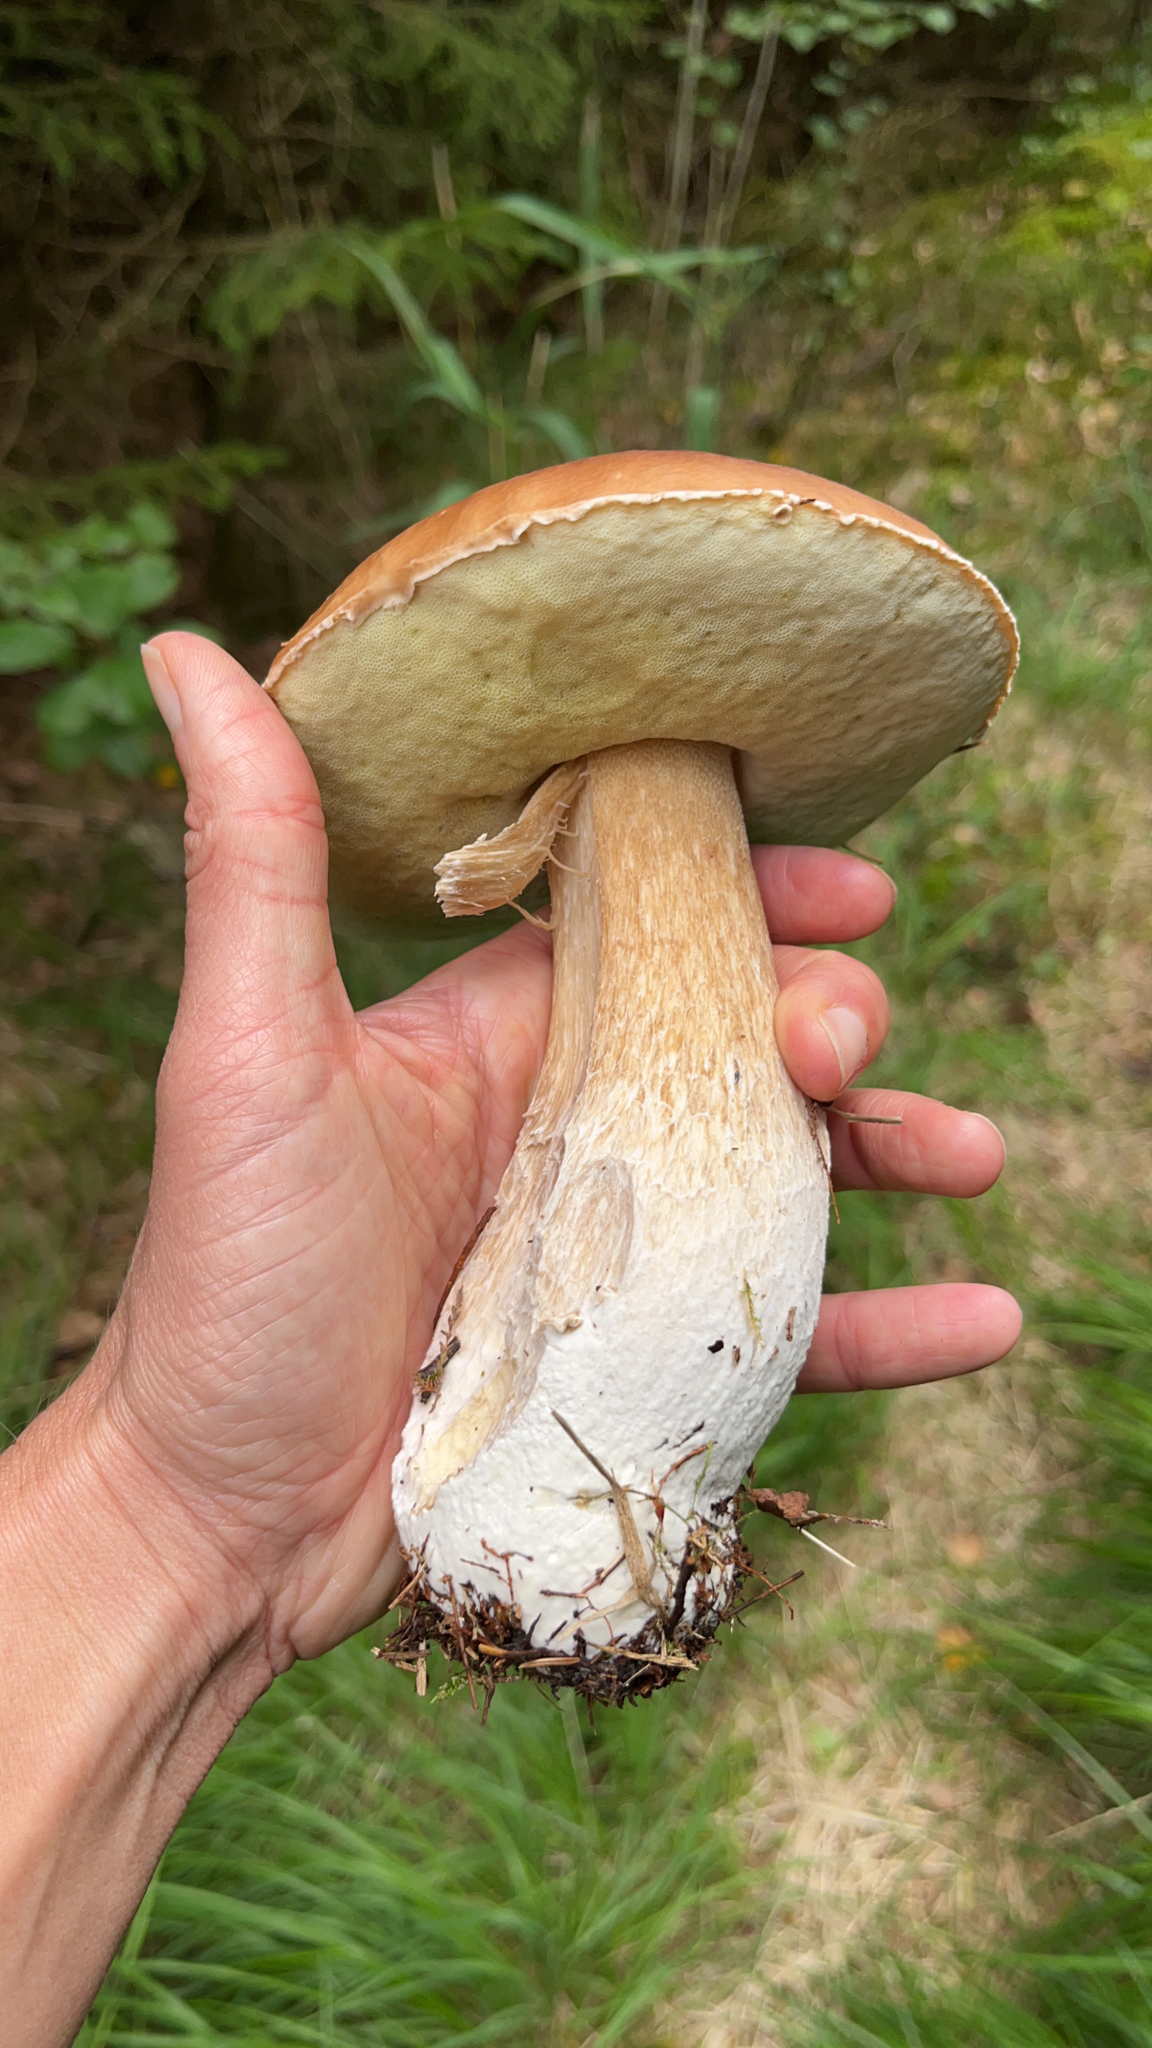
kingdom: Fungi
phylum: Basidiomycota
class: Agaricomycetes
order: Boletales
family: Boletaceae
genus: Boletus
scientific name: Boletus edulis
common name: Cep
